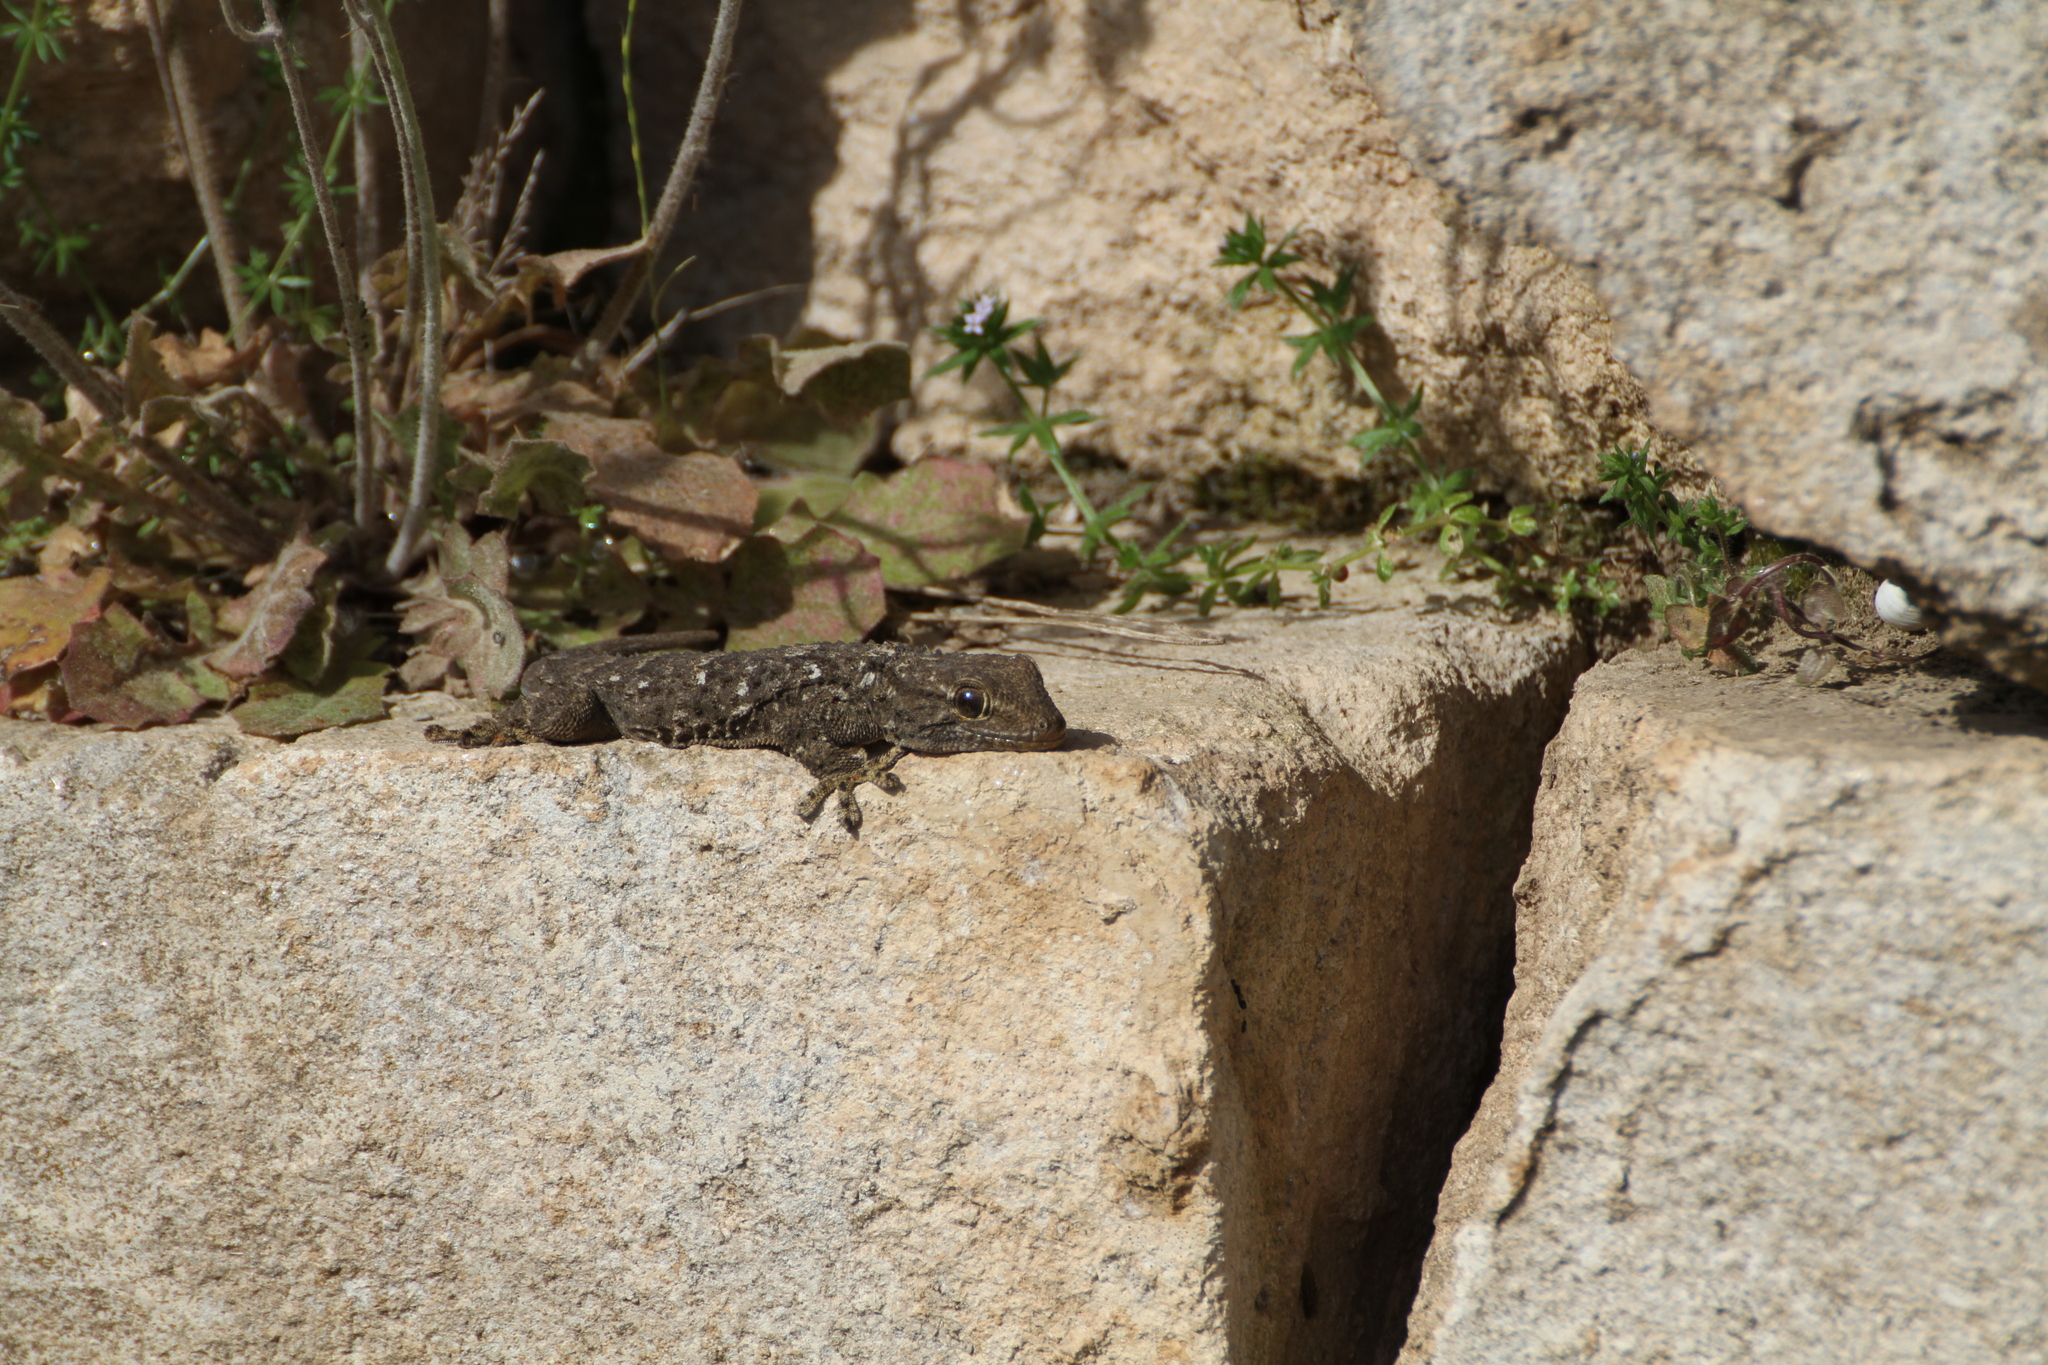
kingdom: Animalia
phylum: Chordata
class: Squamata
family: Phyllodactylidae
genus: Tarentola
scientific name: Tarentola mauritanica
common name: Moorish gecko
